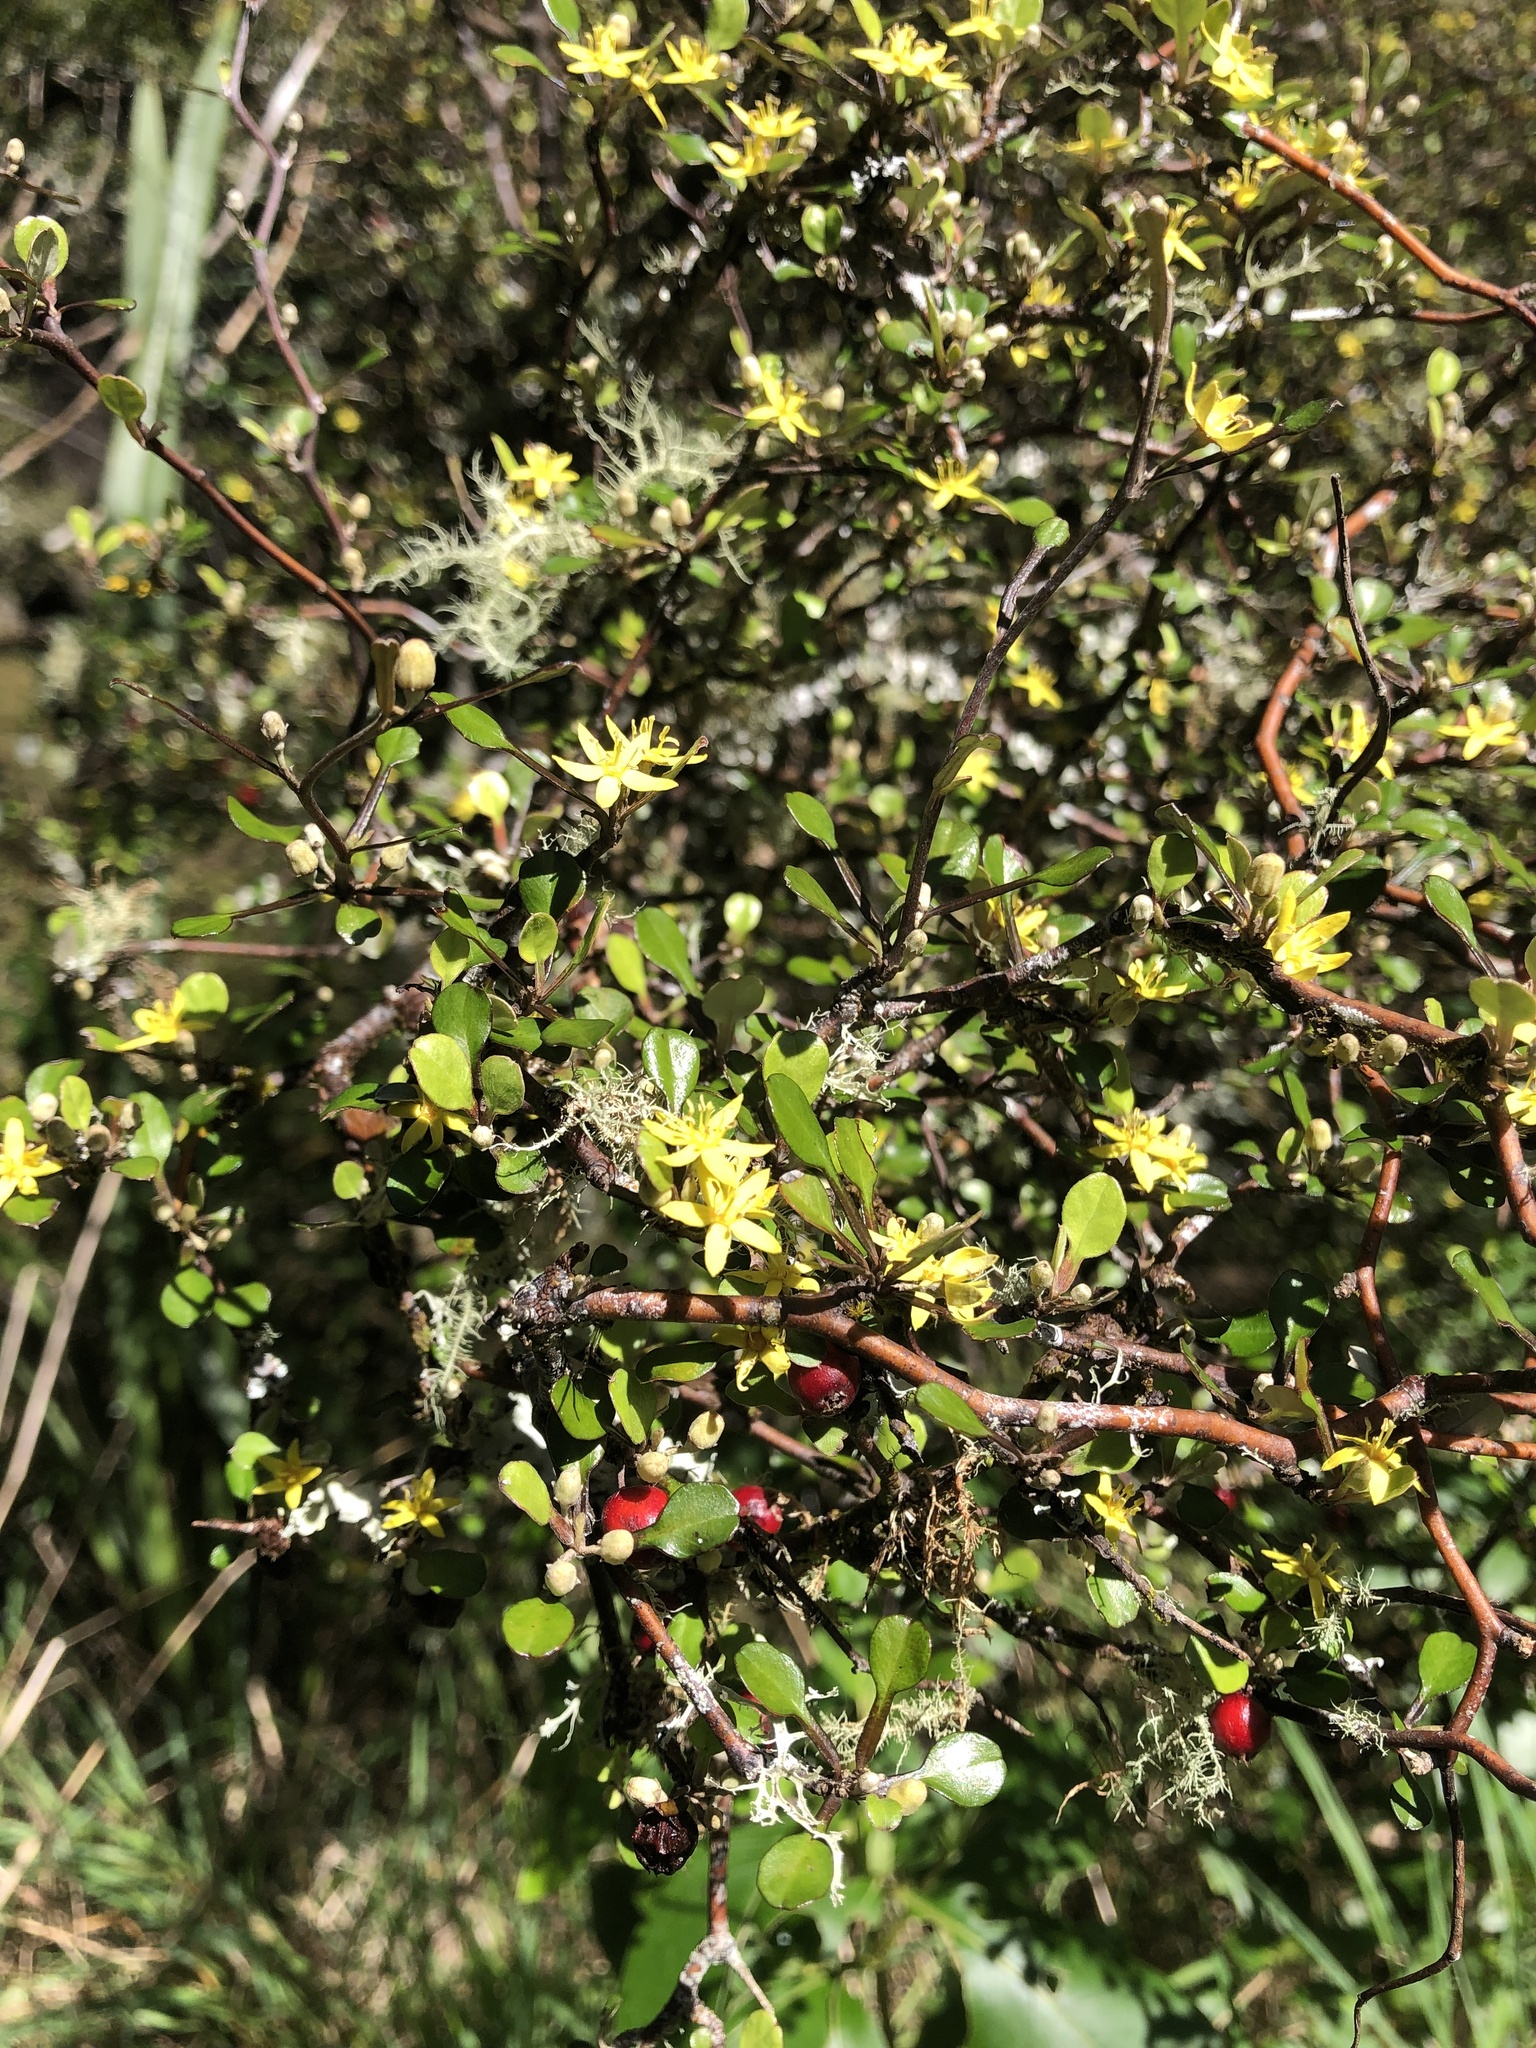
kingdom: Plantae
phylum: Tracheophyta
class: Magnoliopsida
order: Asterales
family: Argophyllaceae
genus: Corokia
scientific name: Corokia cotoneaster
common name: Wire nettingbush
